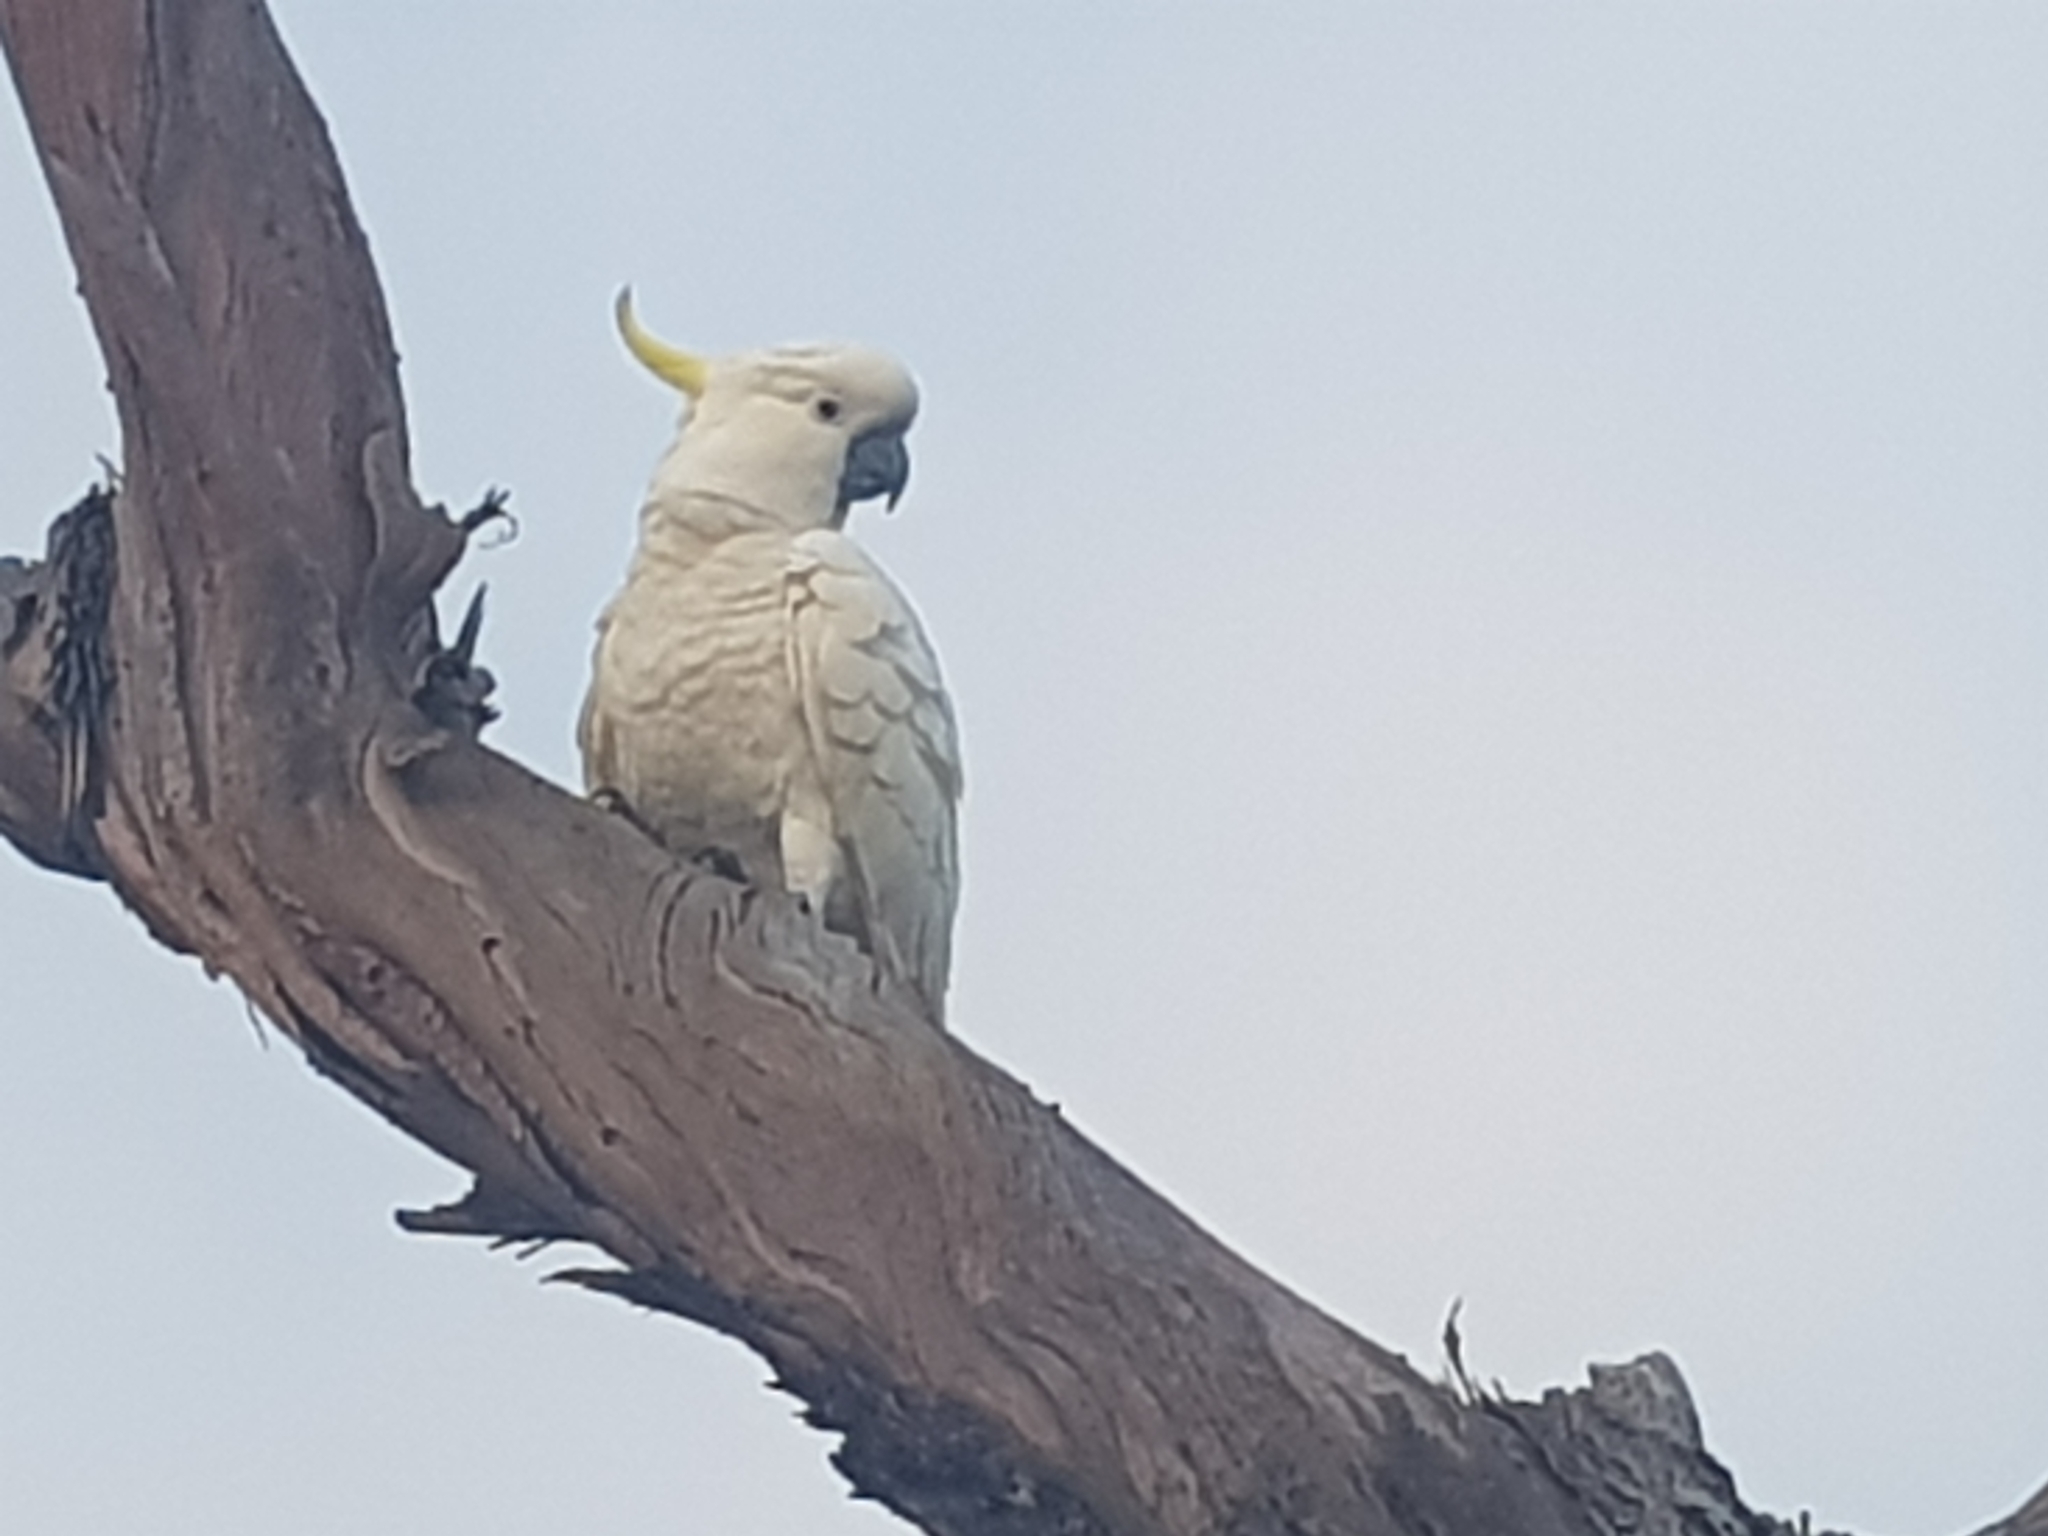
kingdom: Animalia
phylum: Chordata
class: Aves
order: Psittaciformes
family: Psittacidae
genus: Cacatua
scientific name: Cacatua galerita
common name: Sulphur-crested cockatoo
